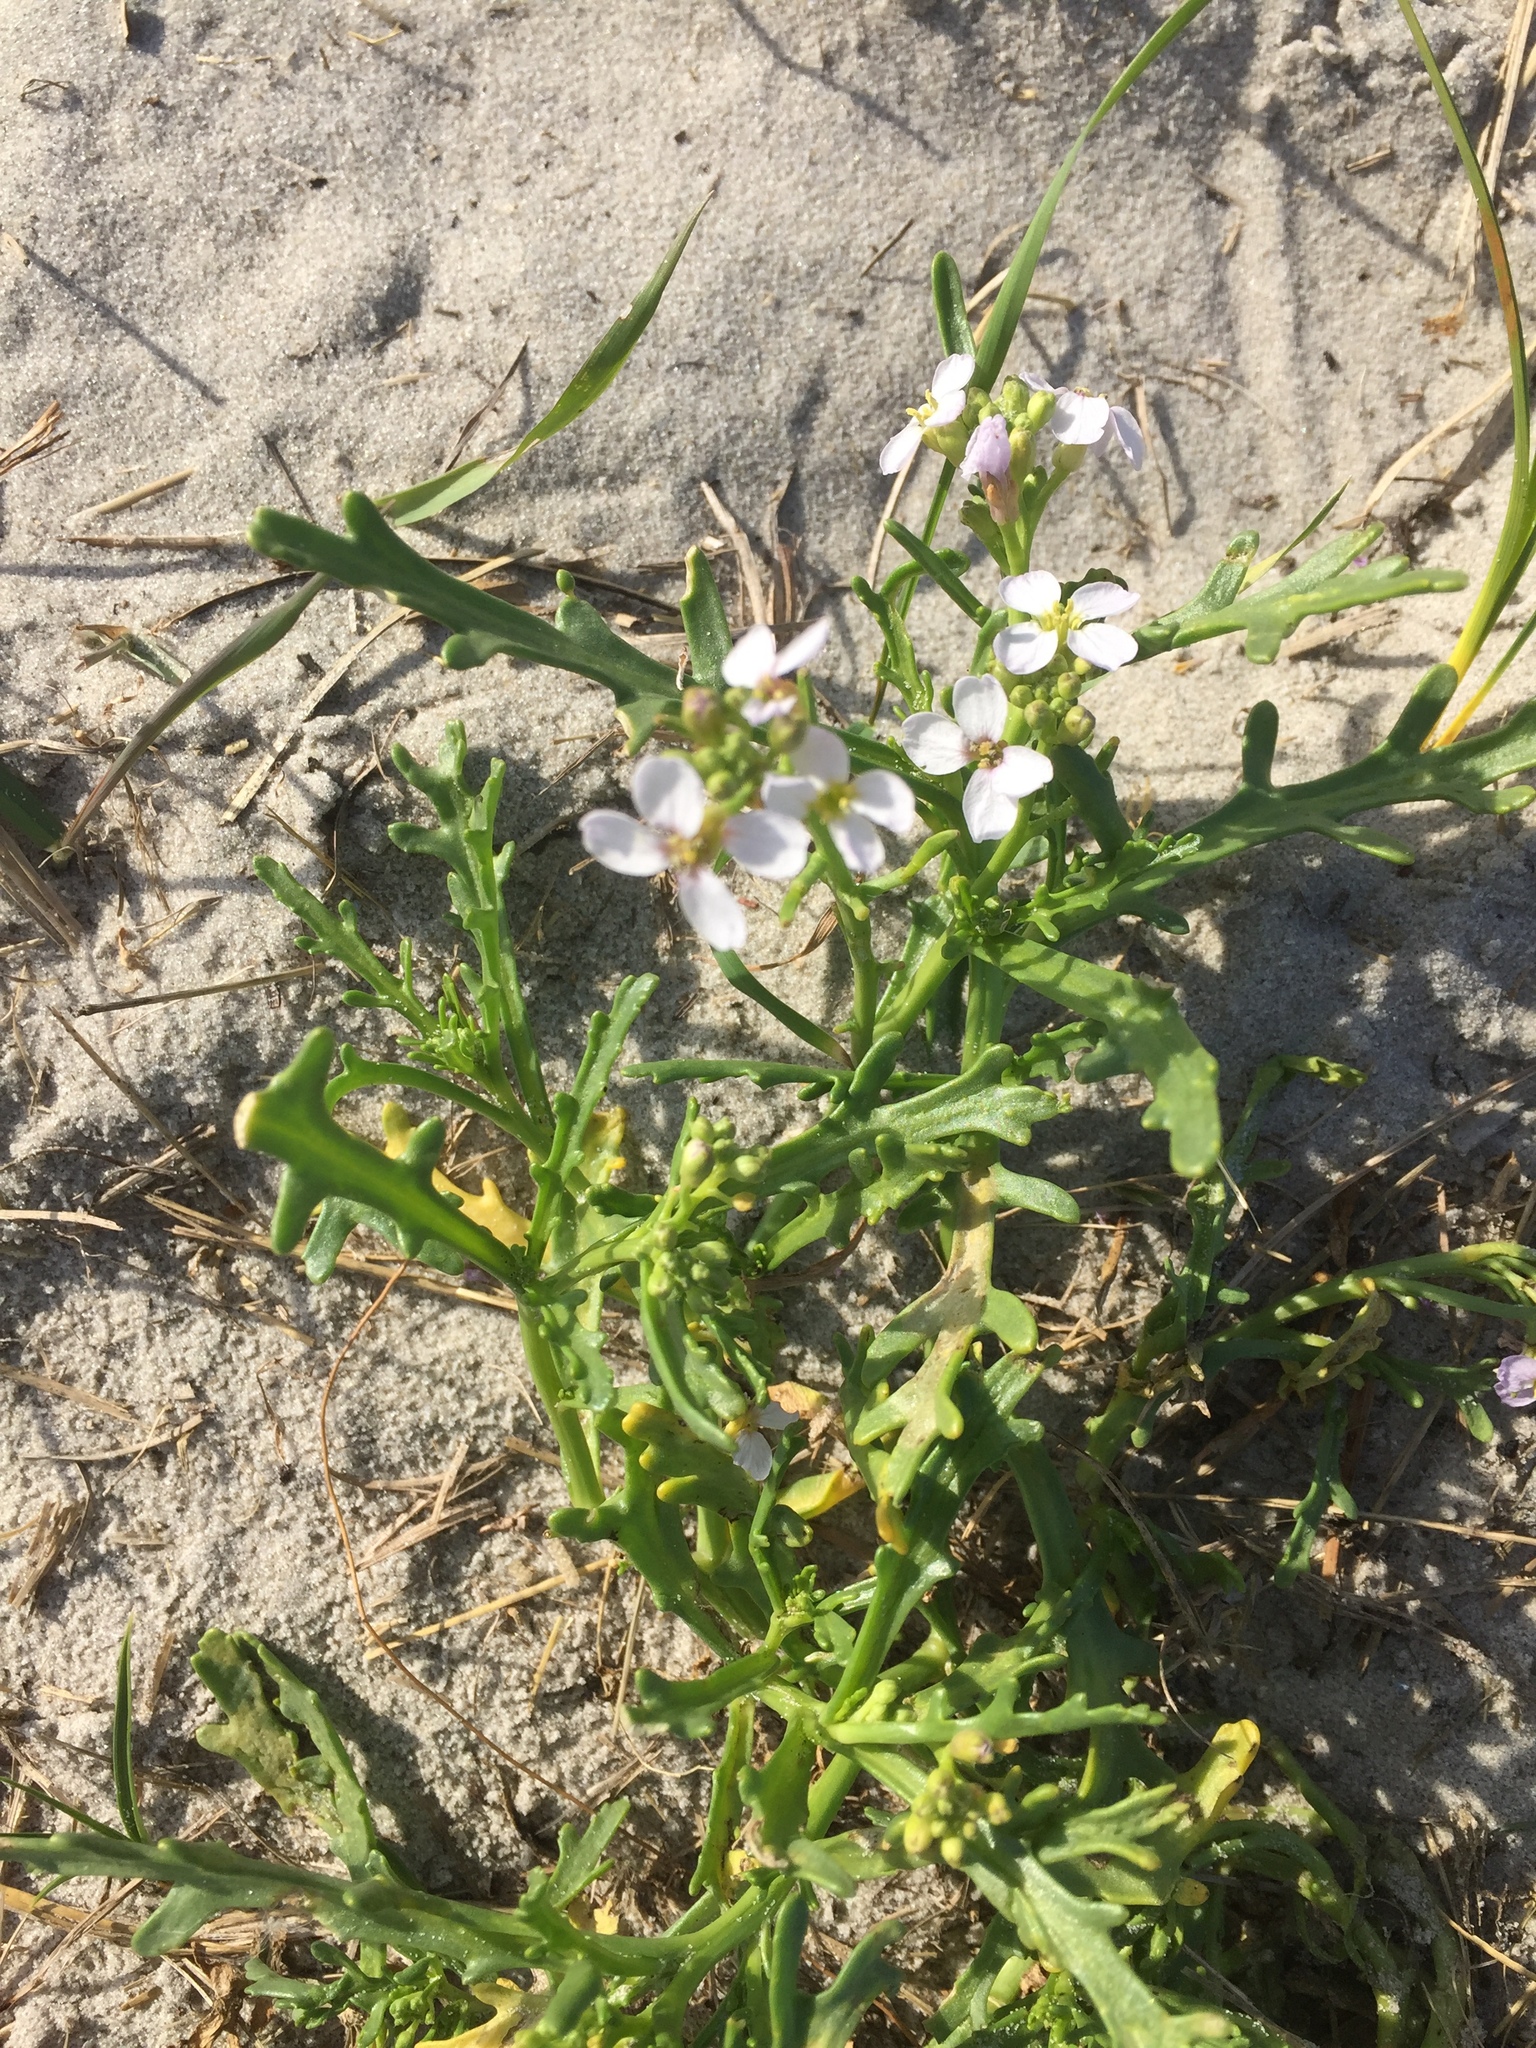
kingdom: Plantae
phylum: Tracheophyta
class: Magnoliopsida
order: Brassicales
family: Brassicaceae
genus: Cakile
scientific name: Cakile maritima
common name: Sea rocket
